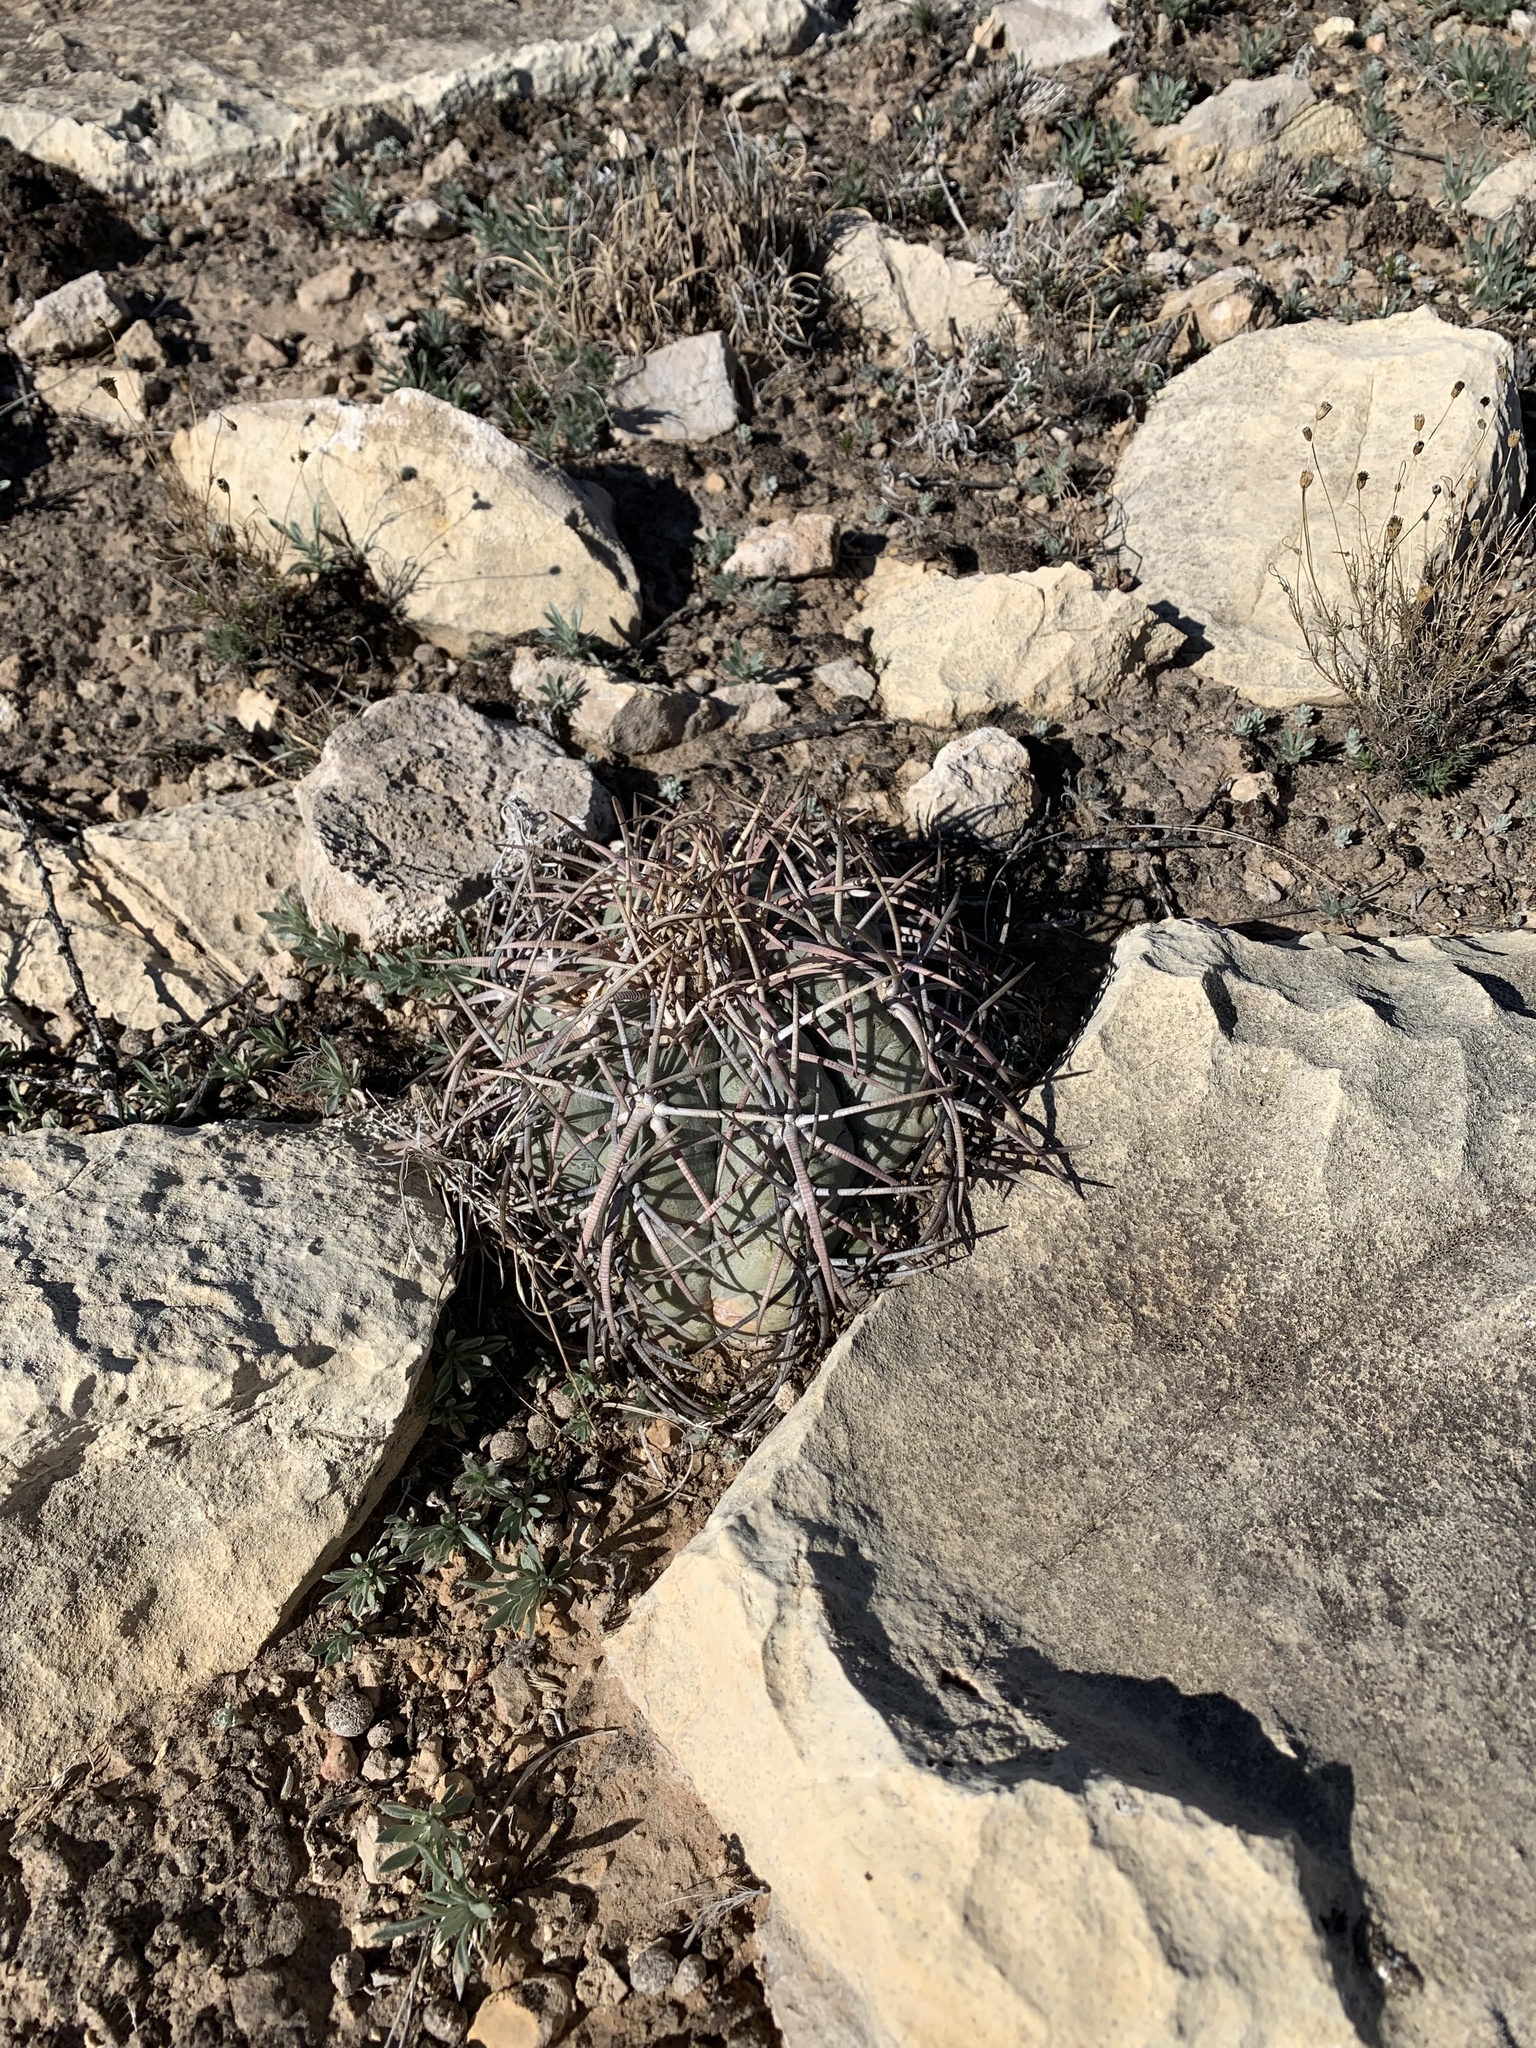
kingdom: Plantae
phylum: Tracheophyta
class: Magnoliopsida
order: Caryophyllales
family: Cactaceae
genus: Echinocactus
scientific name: Echinocactus horizonthalonius
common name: Devilshead
